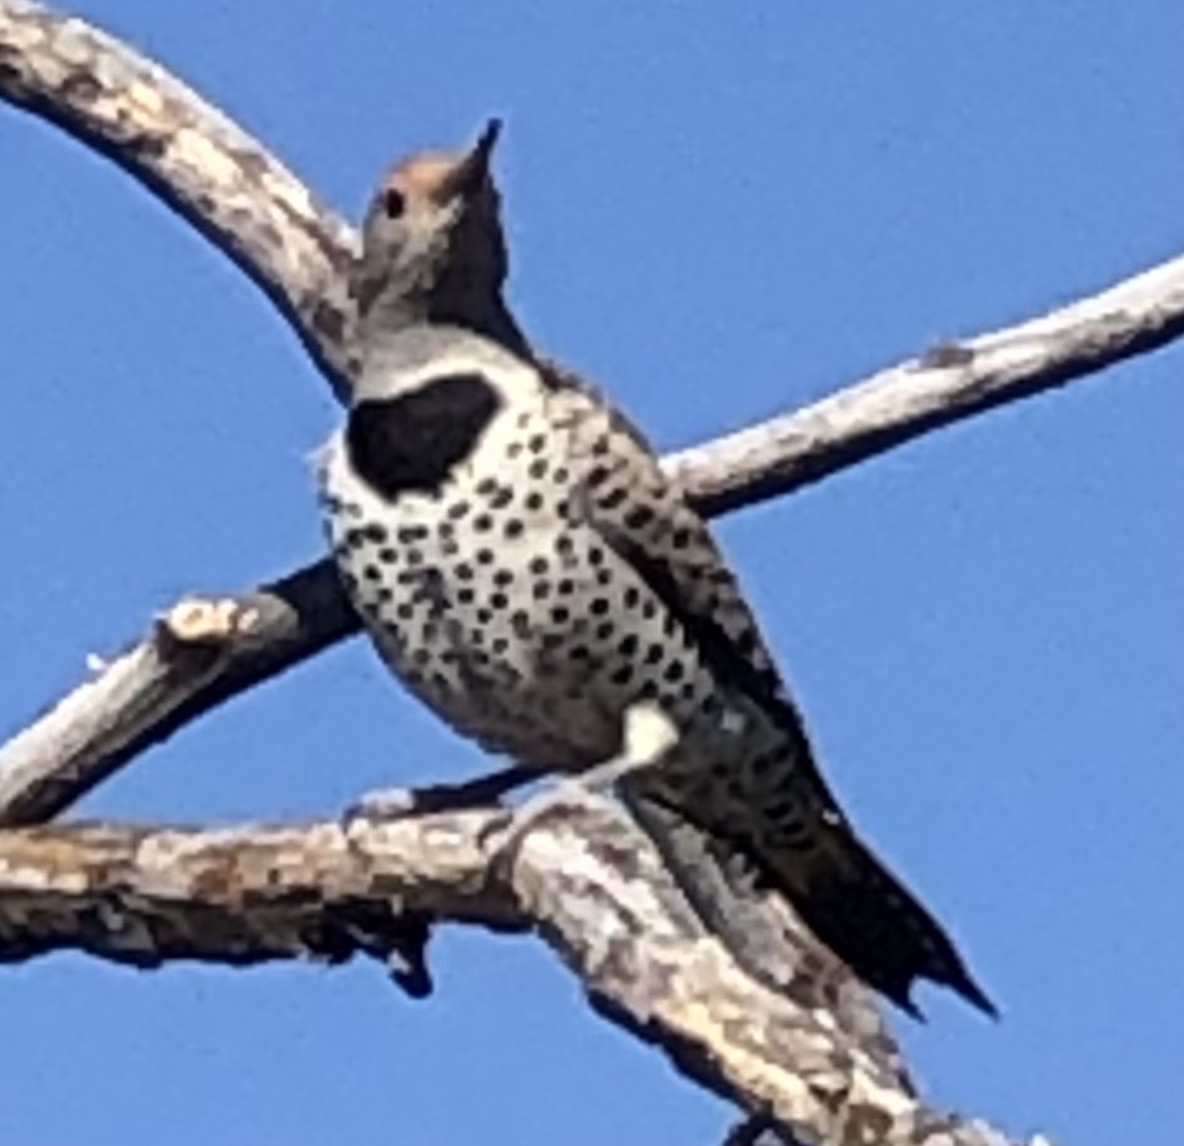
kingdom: Animalia
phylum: Chordata
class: Aves
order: Piciformes
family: Picidae
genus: Colaptes
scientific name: Colaptes auratus
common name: Northern flicker
